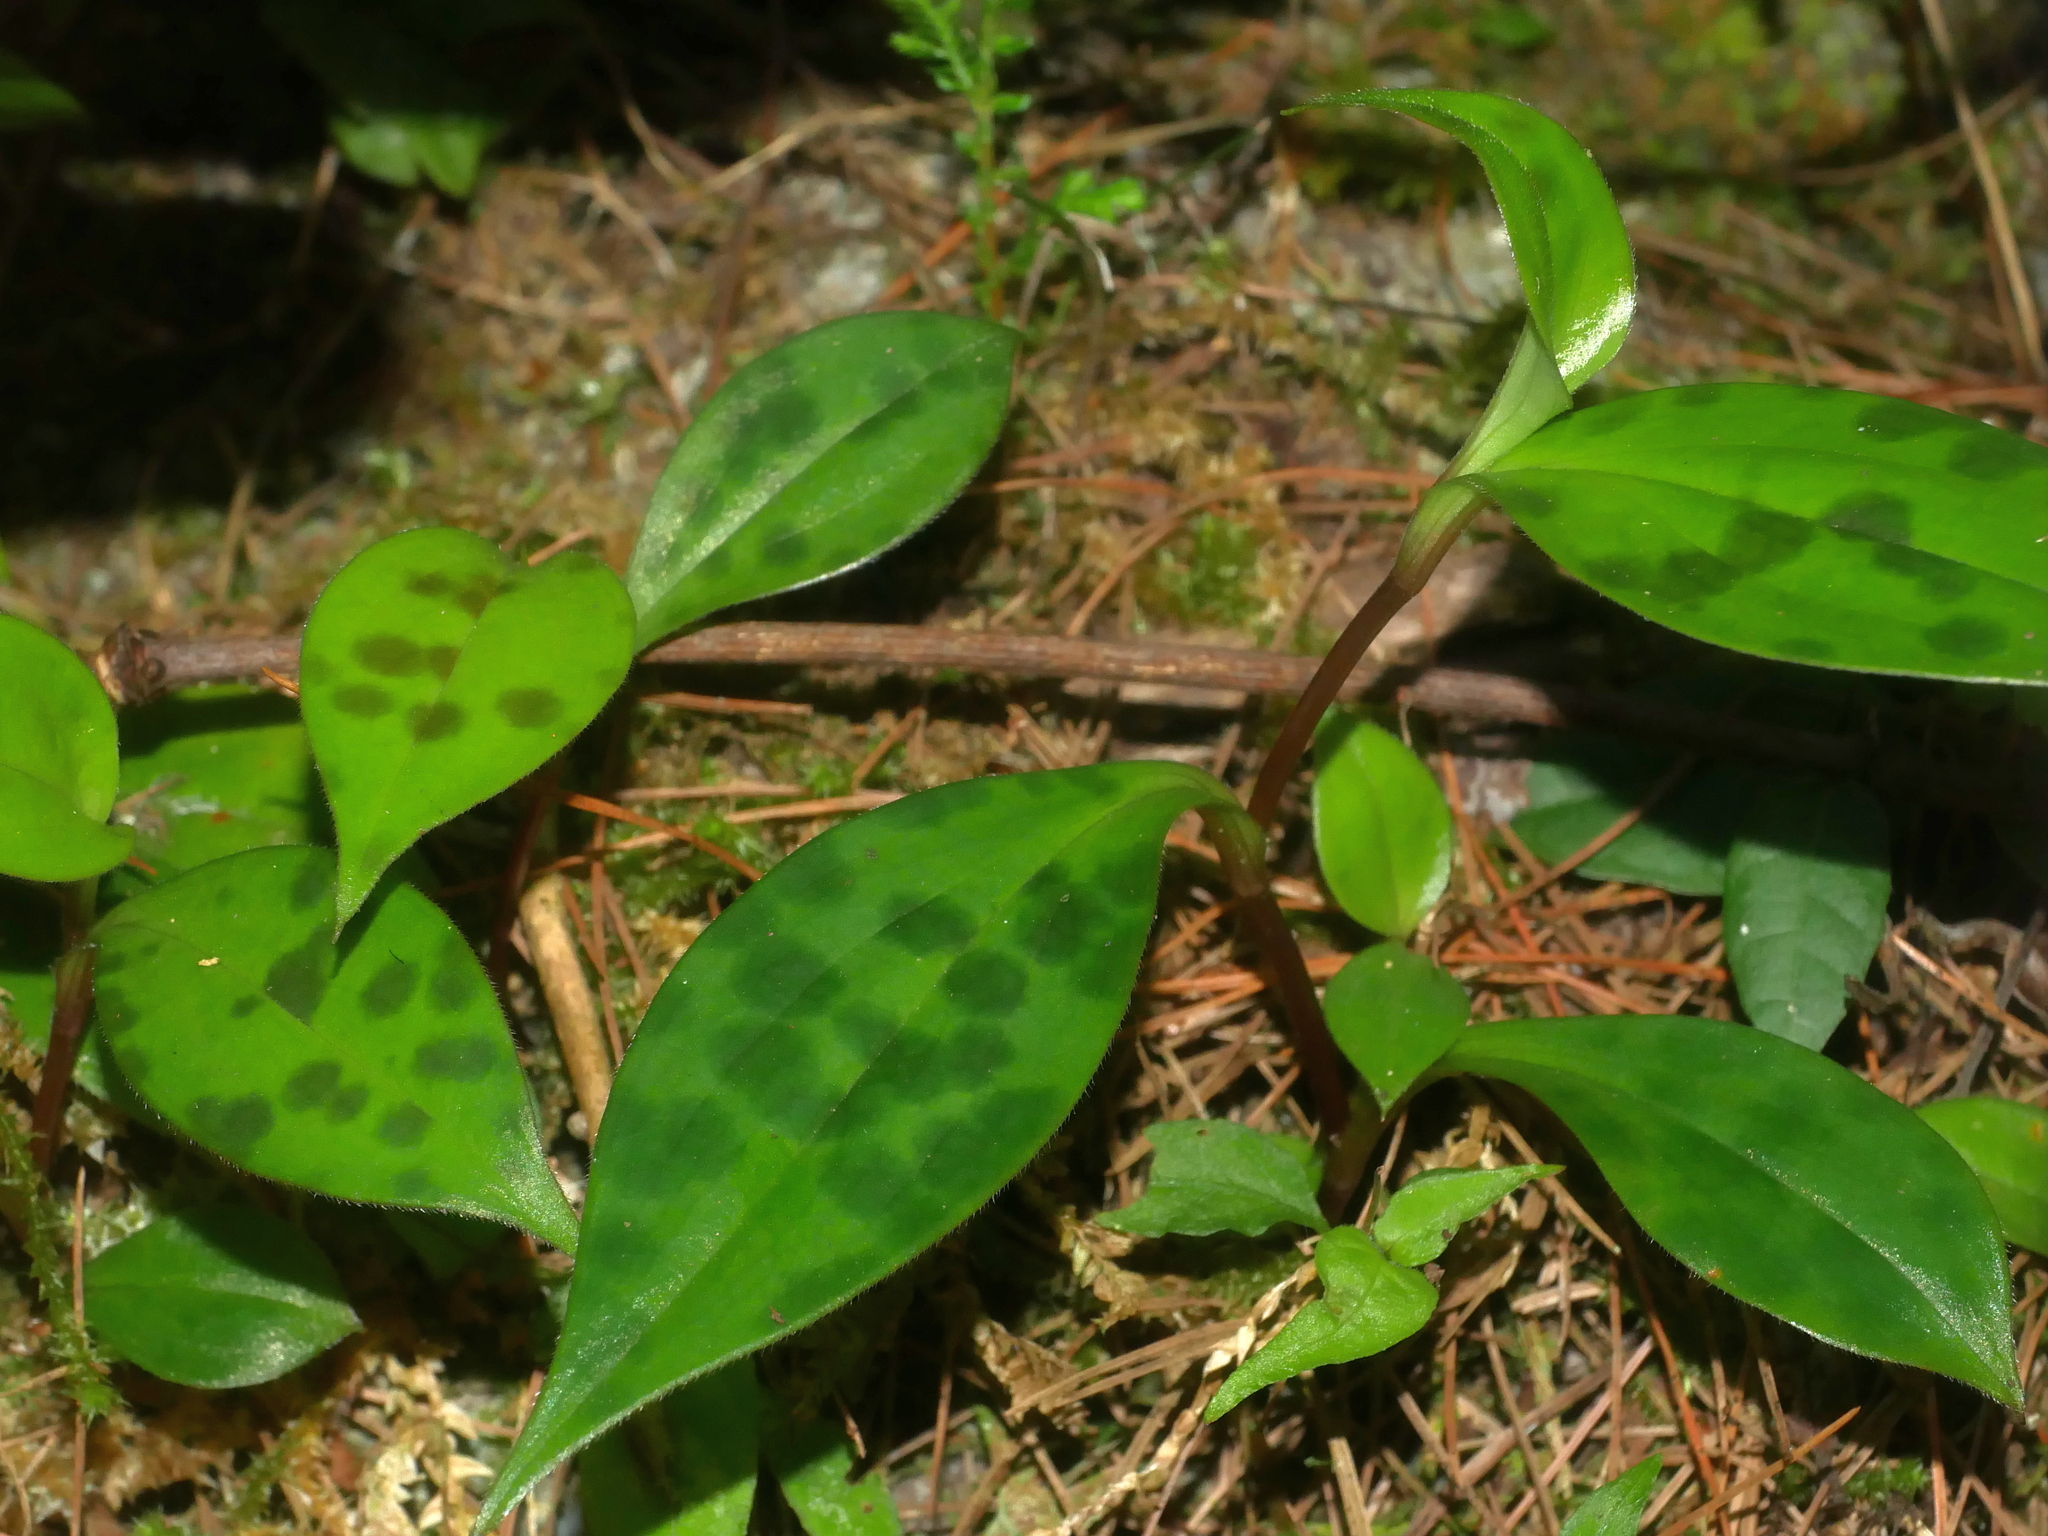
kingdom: Plantae
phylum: Tracheophyta
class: Liliopsida
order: Liliales
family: Liliaceae
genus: Tricyrtis
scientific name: Tricyrtis formosana
